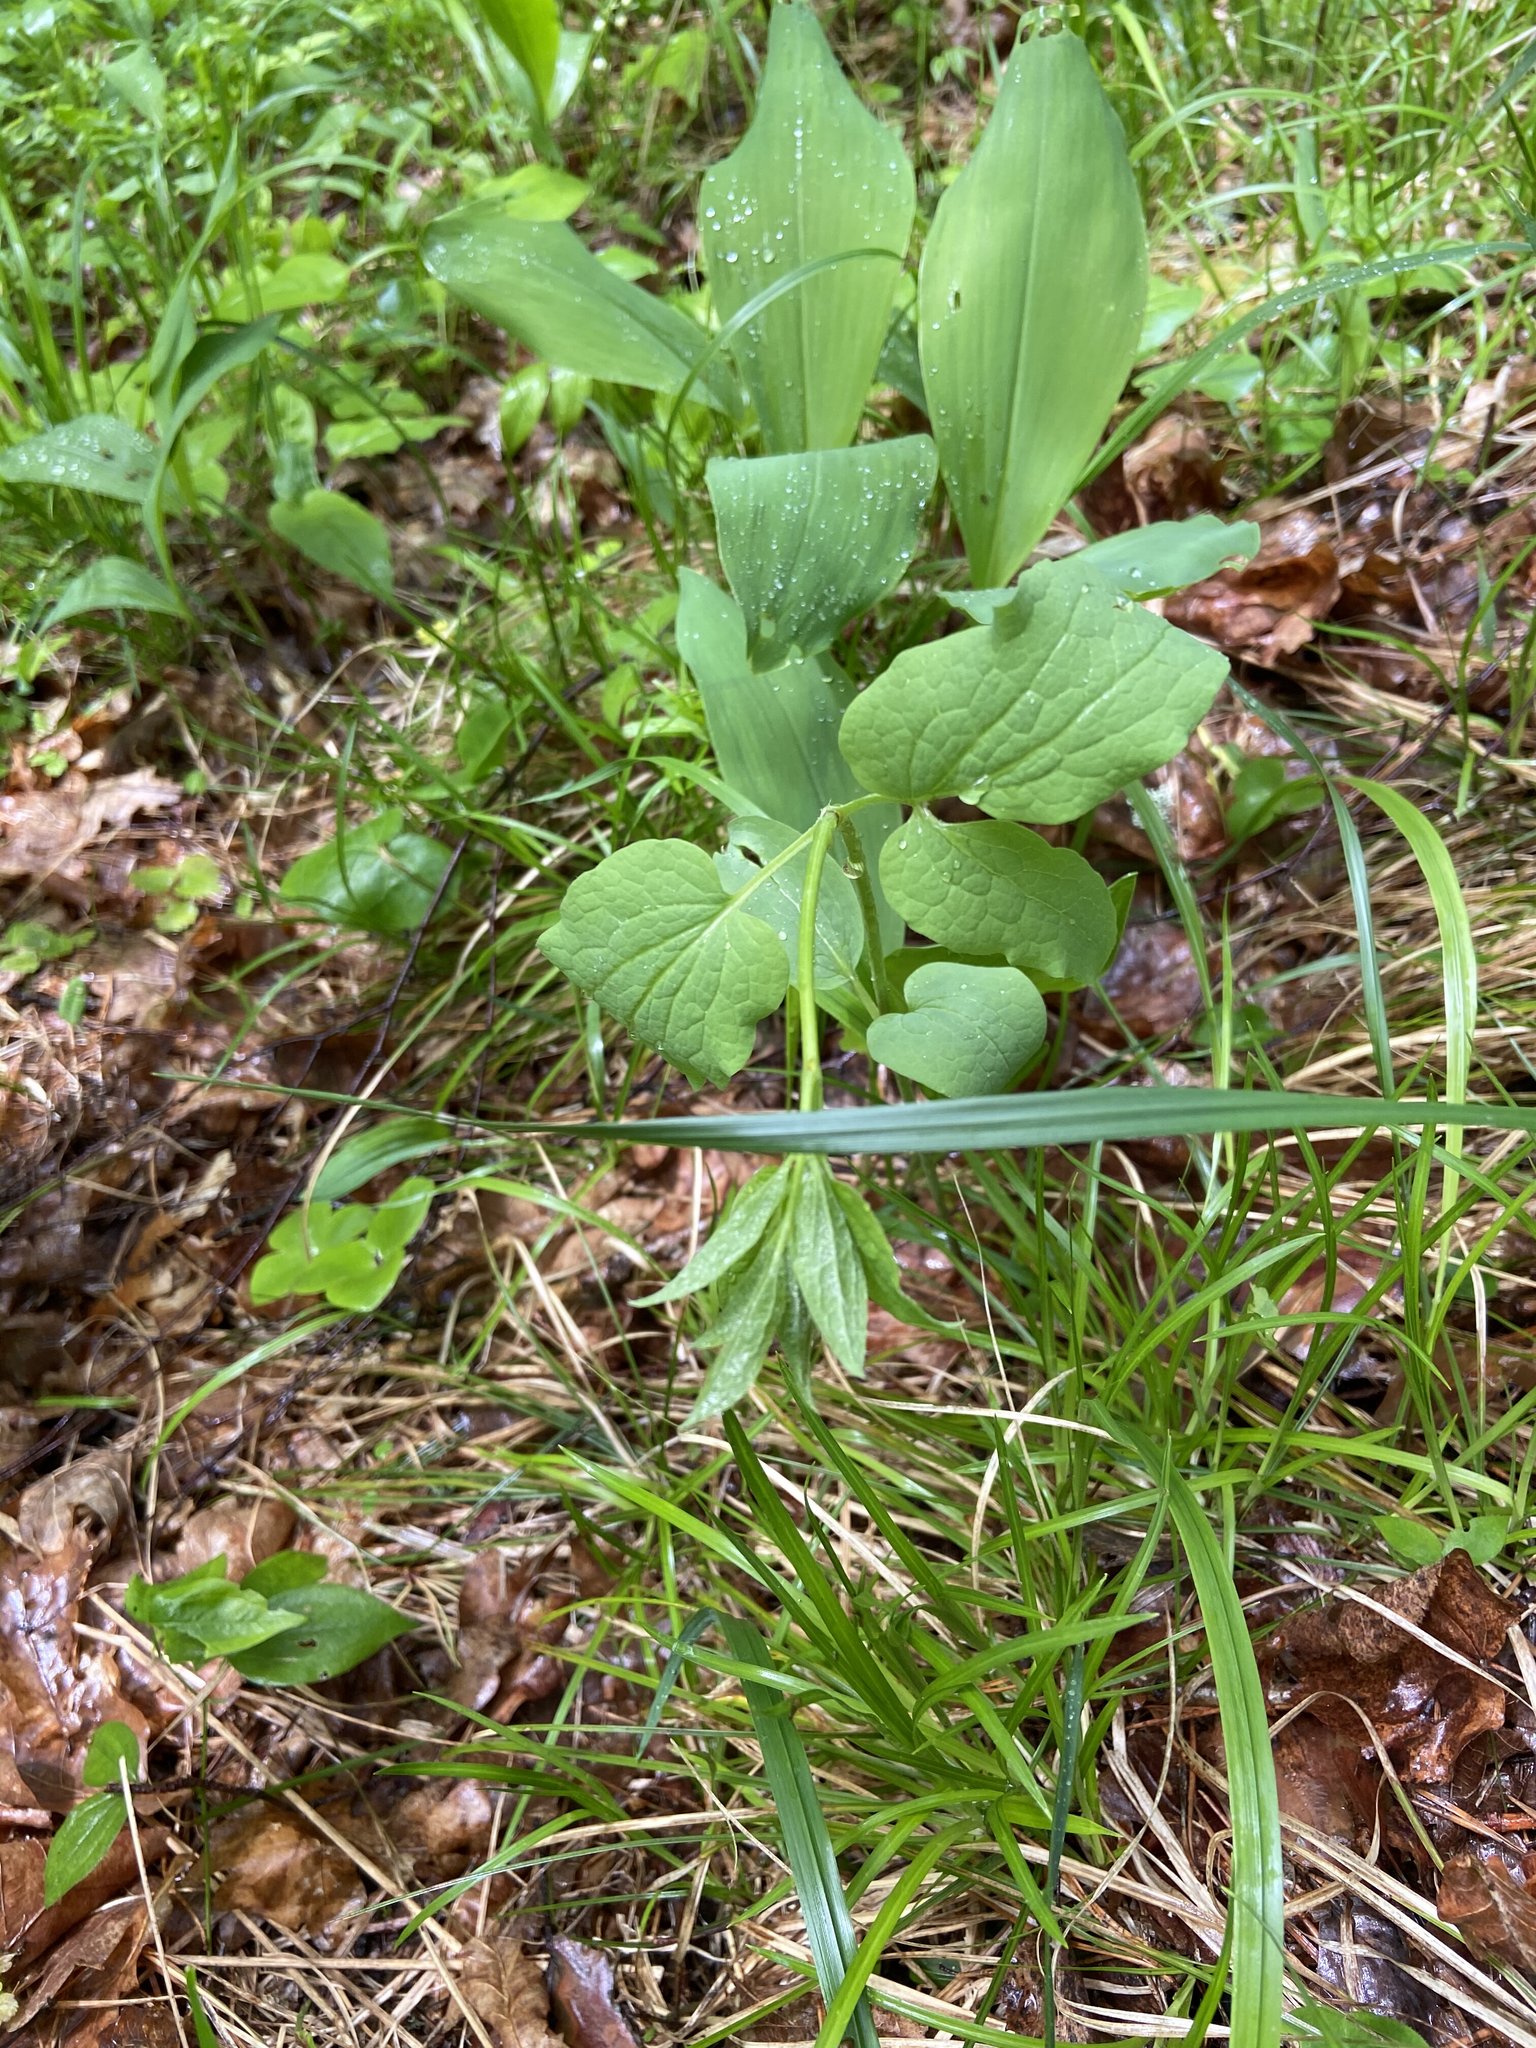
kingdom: Plantae
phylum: Tracheophyta
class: Magnoliopsida
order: Ranunculales
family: Ranunculaceae
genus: Clematis
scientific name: Clematis recta
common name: Ground clematis
